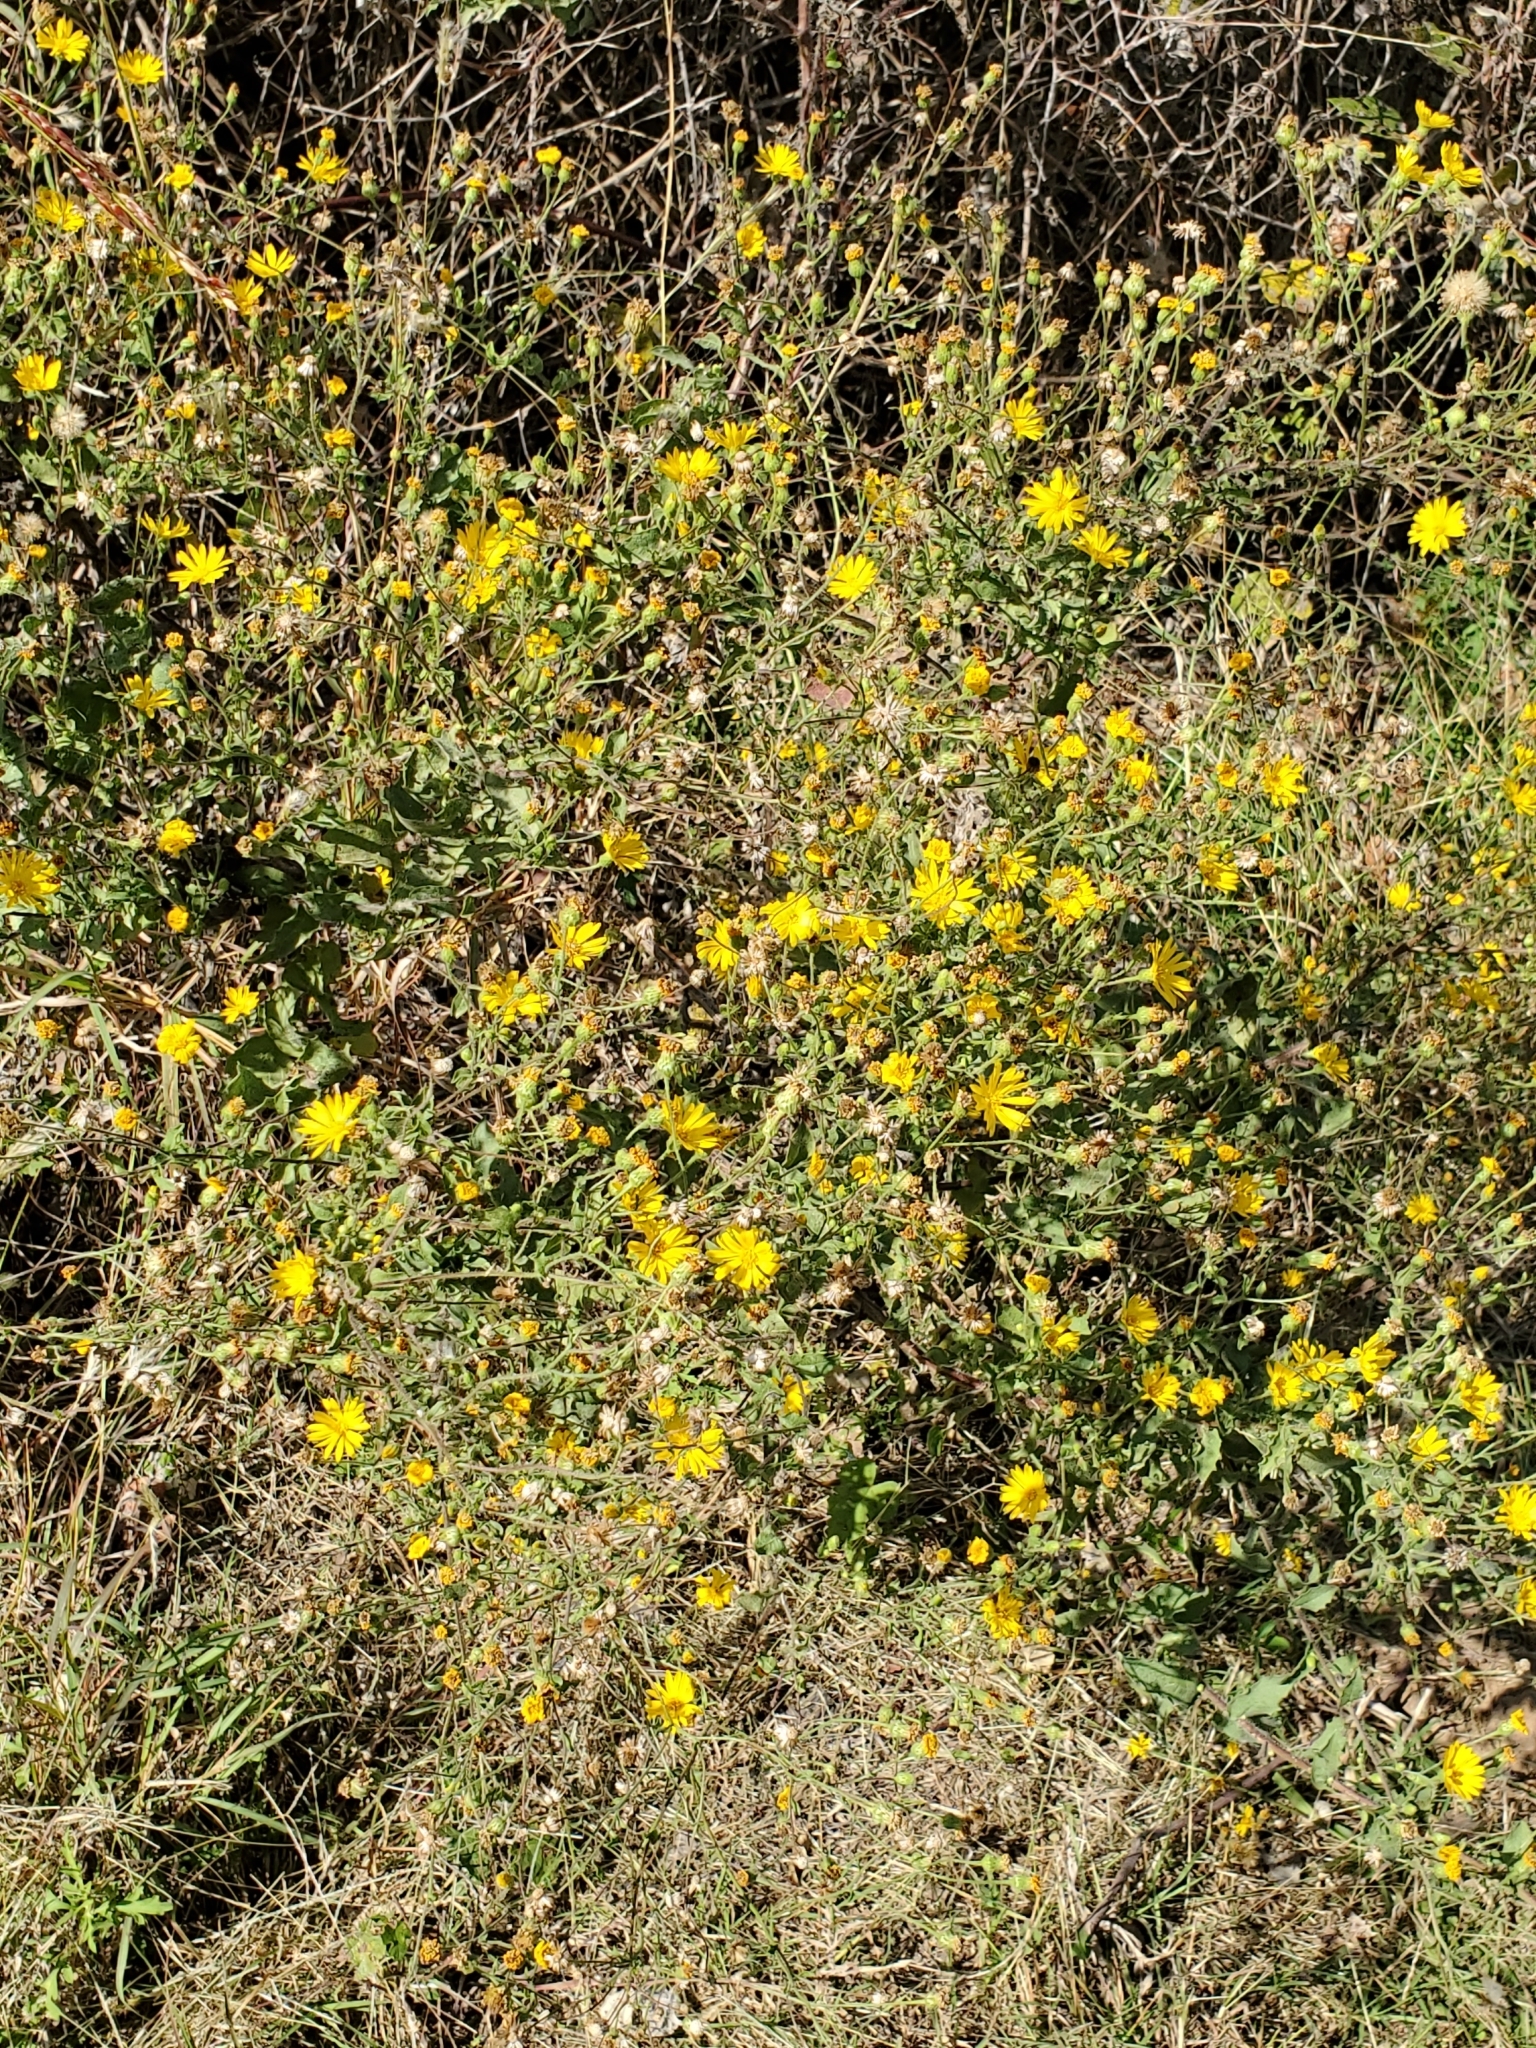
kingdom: Plantae
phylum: Tracheophyta
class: Magnoliopsida
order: Asterales
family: Asteraceae
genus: Heterotheca
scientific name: Heterotheca subaxillaris
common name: Camphorweed
